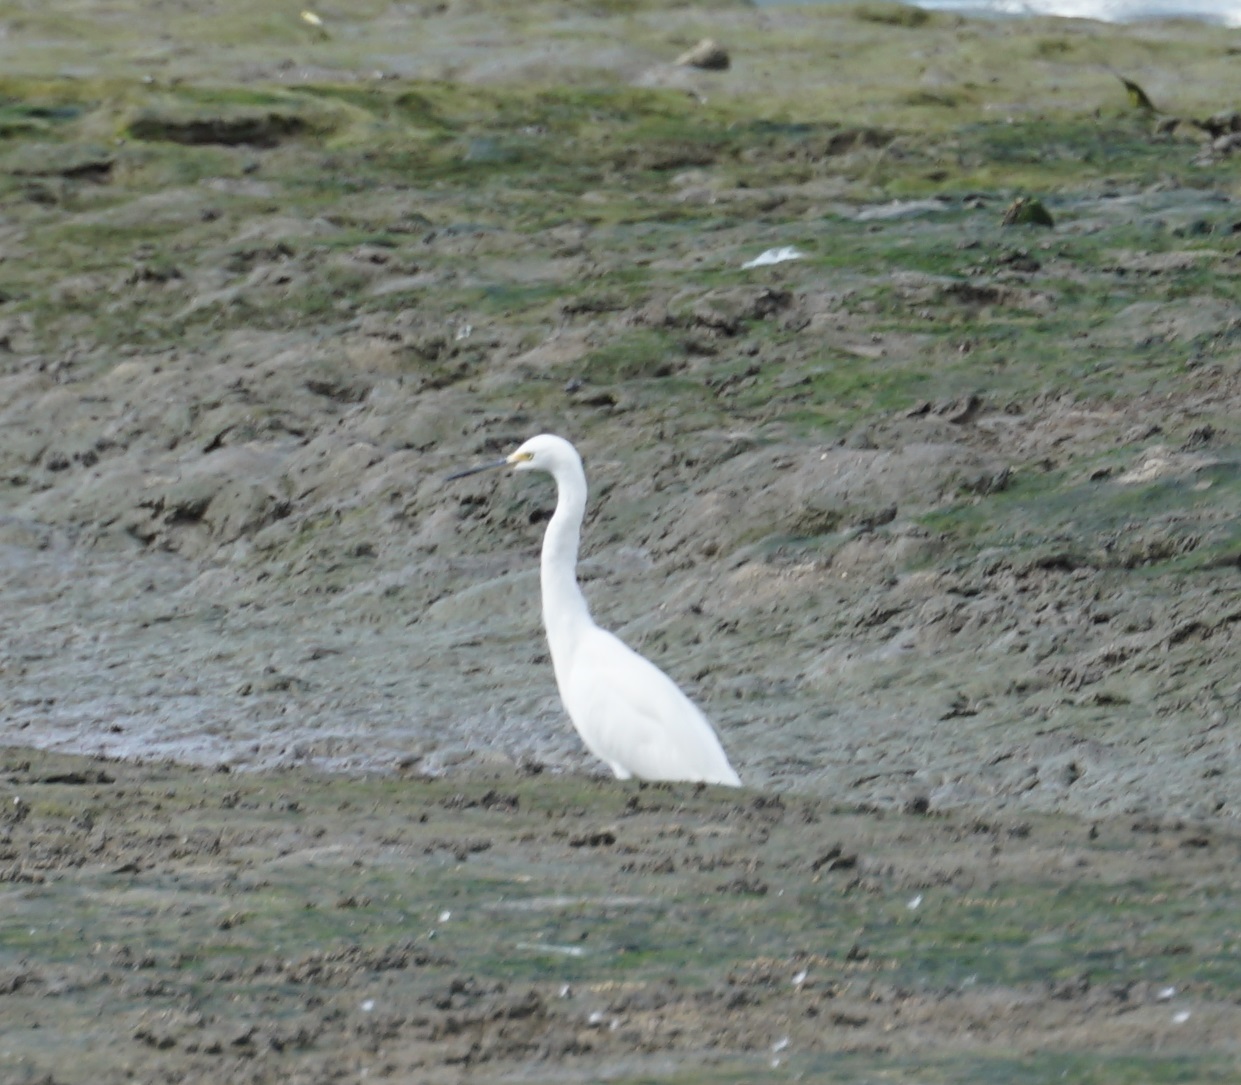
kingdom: Animalia
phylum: Chordata
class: Aves
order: Pelecaniformes
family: Ardeidae
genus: Egretta
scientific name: Egretta garzetta
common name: Little egret
